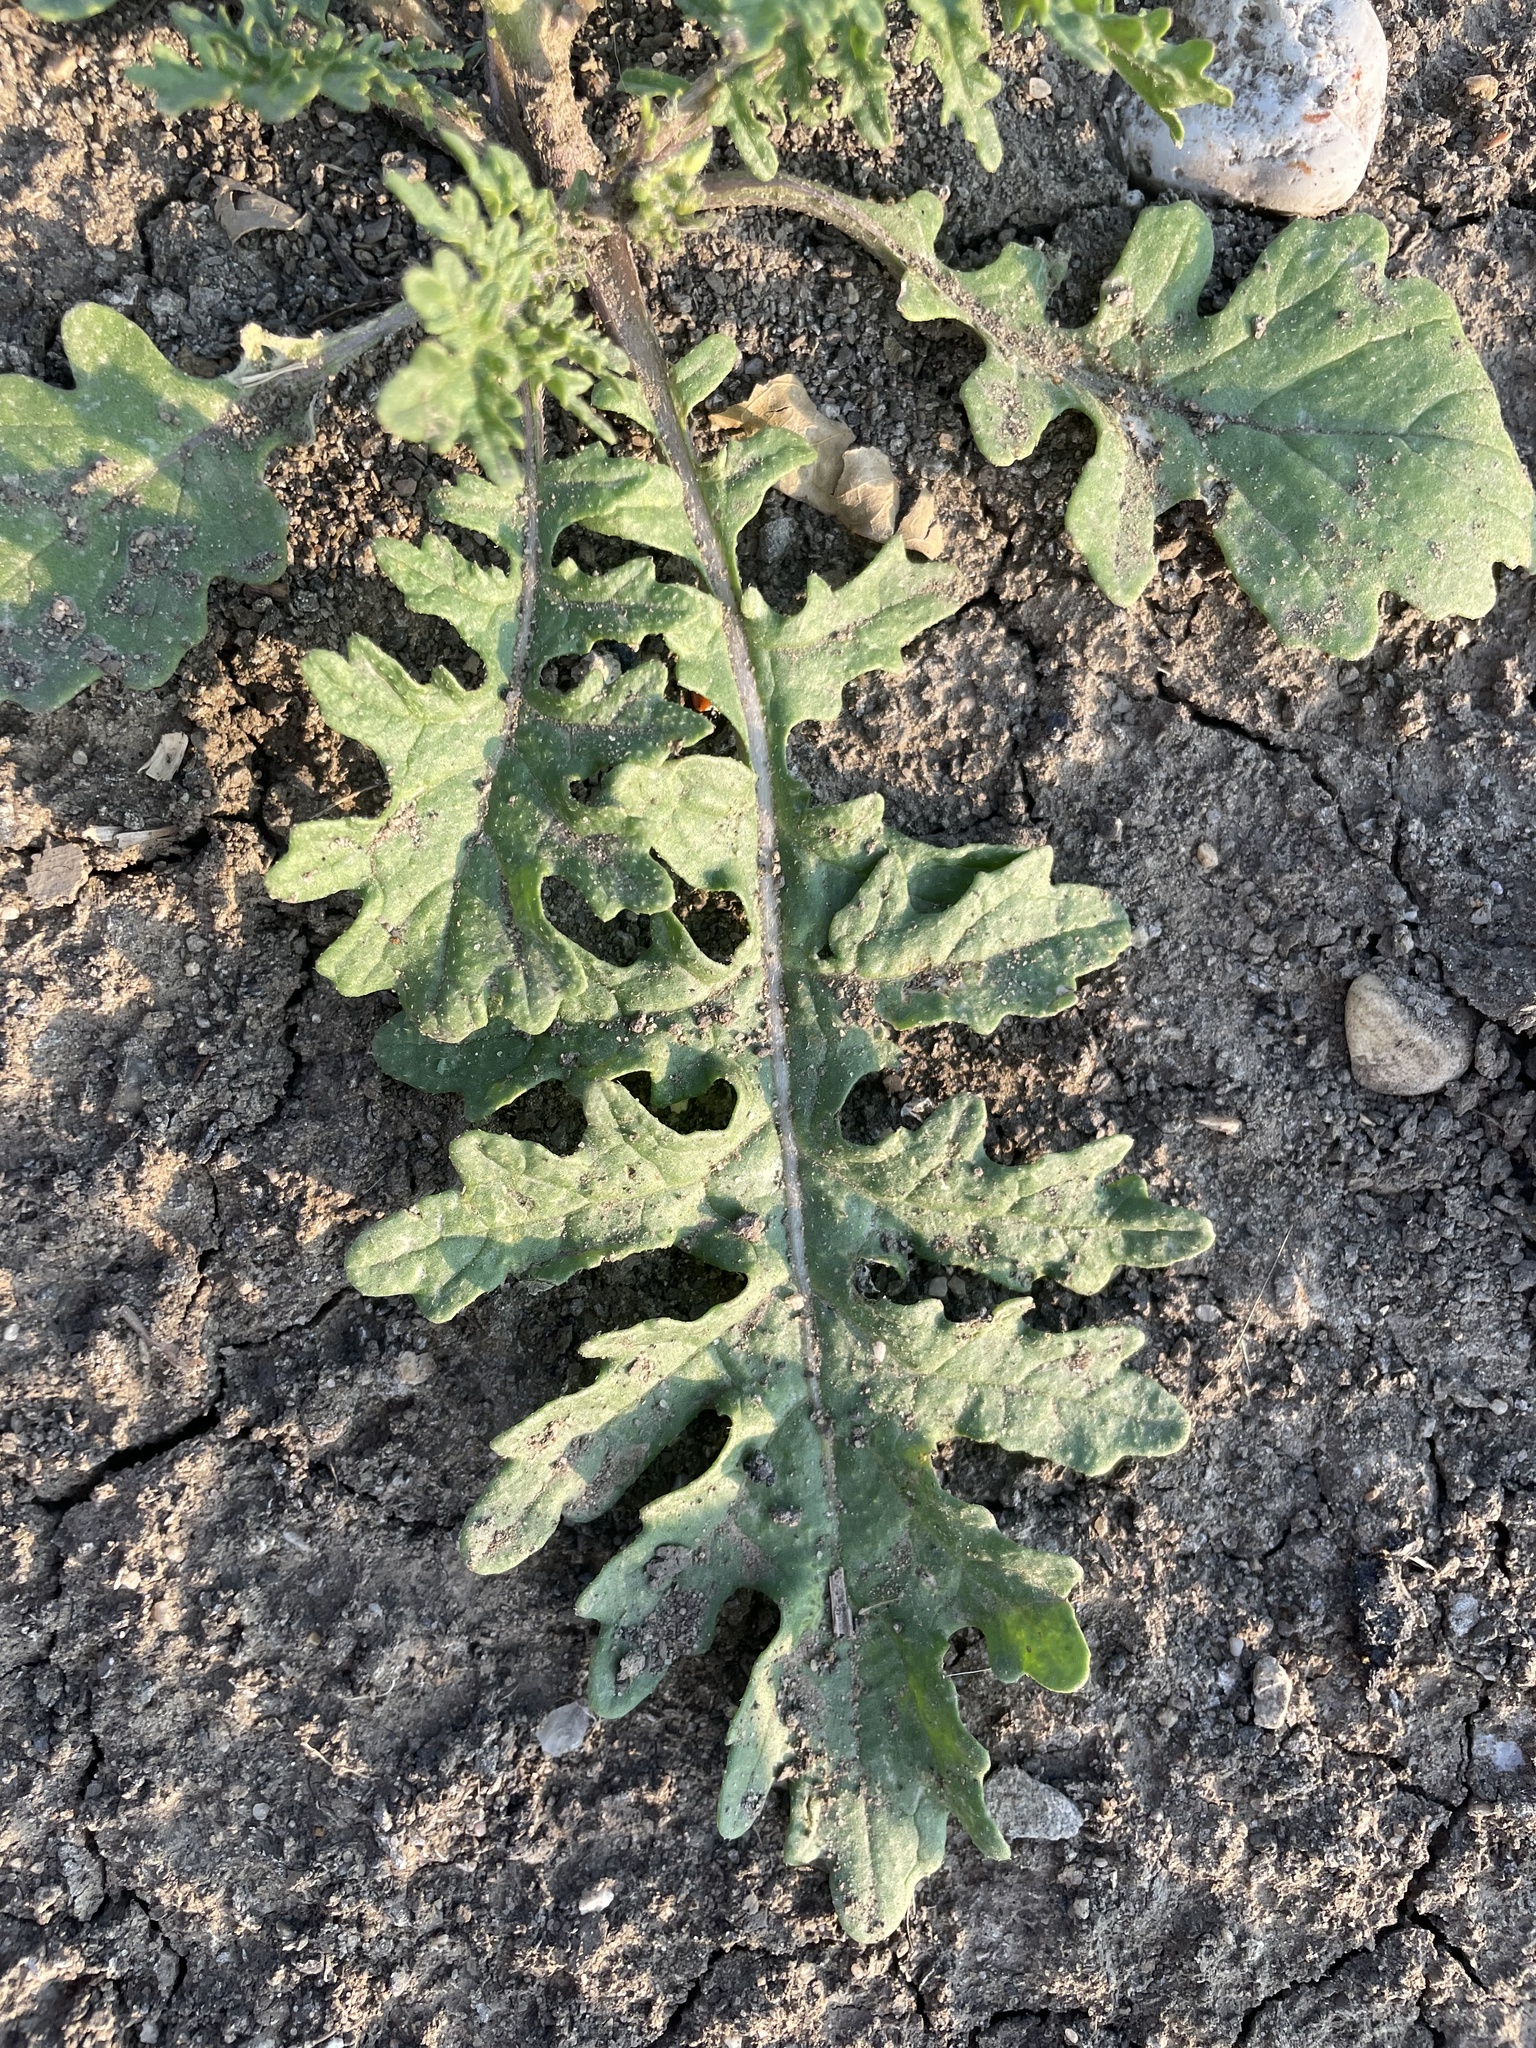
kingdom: Plantae
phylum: Tracheophyta
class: Magnoliopsida
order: Brassicales
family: Brassicaceae
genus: Erucastrum
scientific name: Erucastrum gallicum
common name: Hairy rocket
